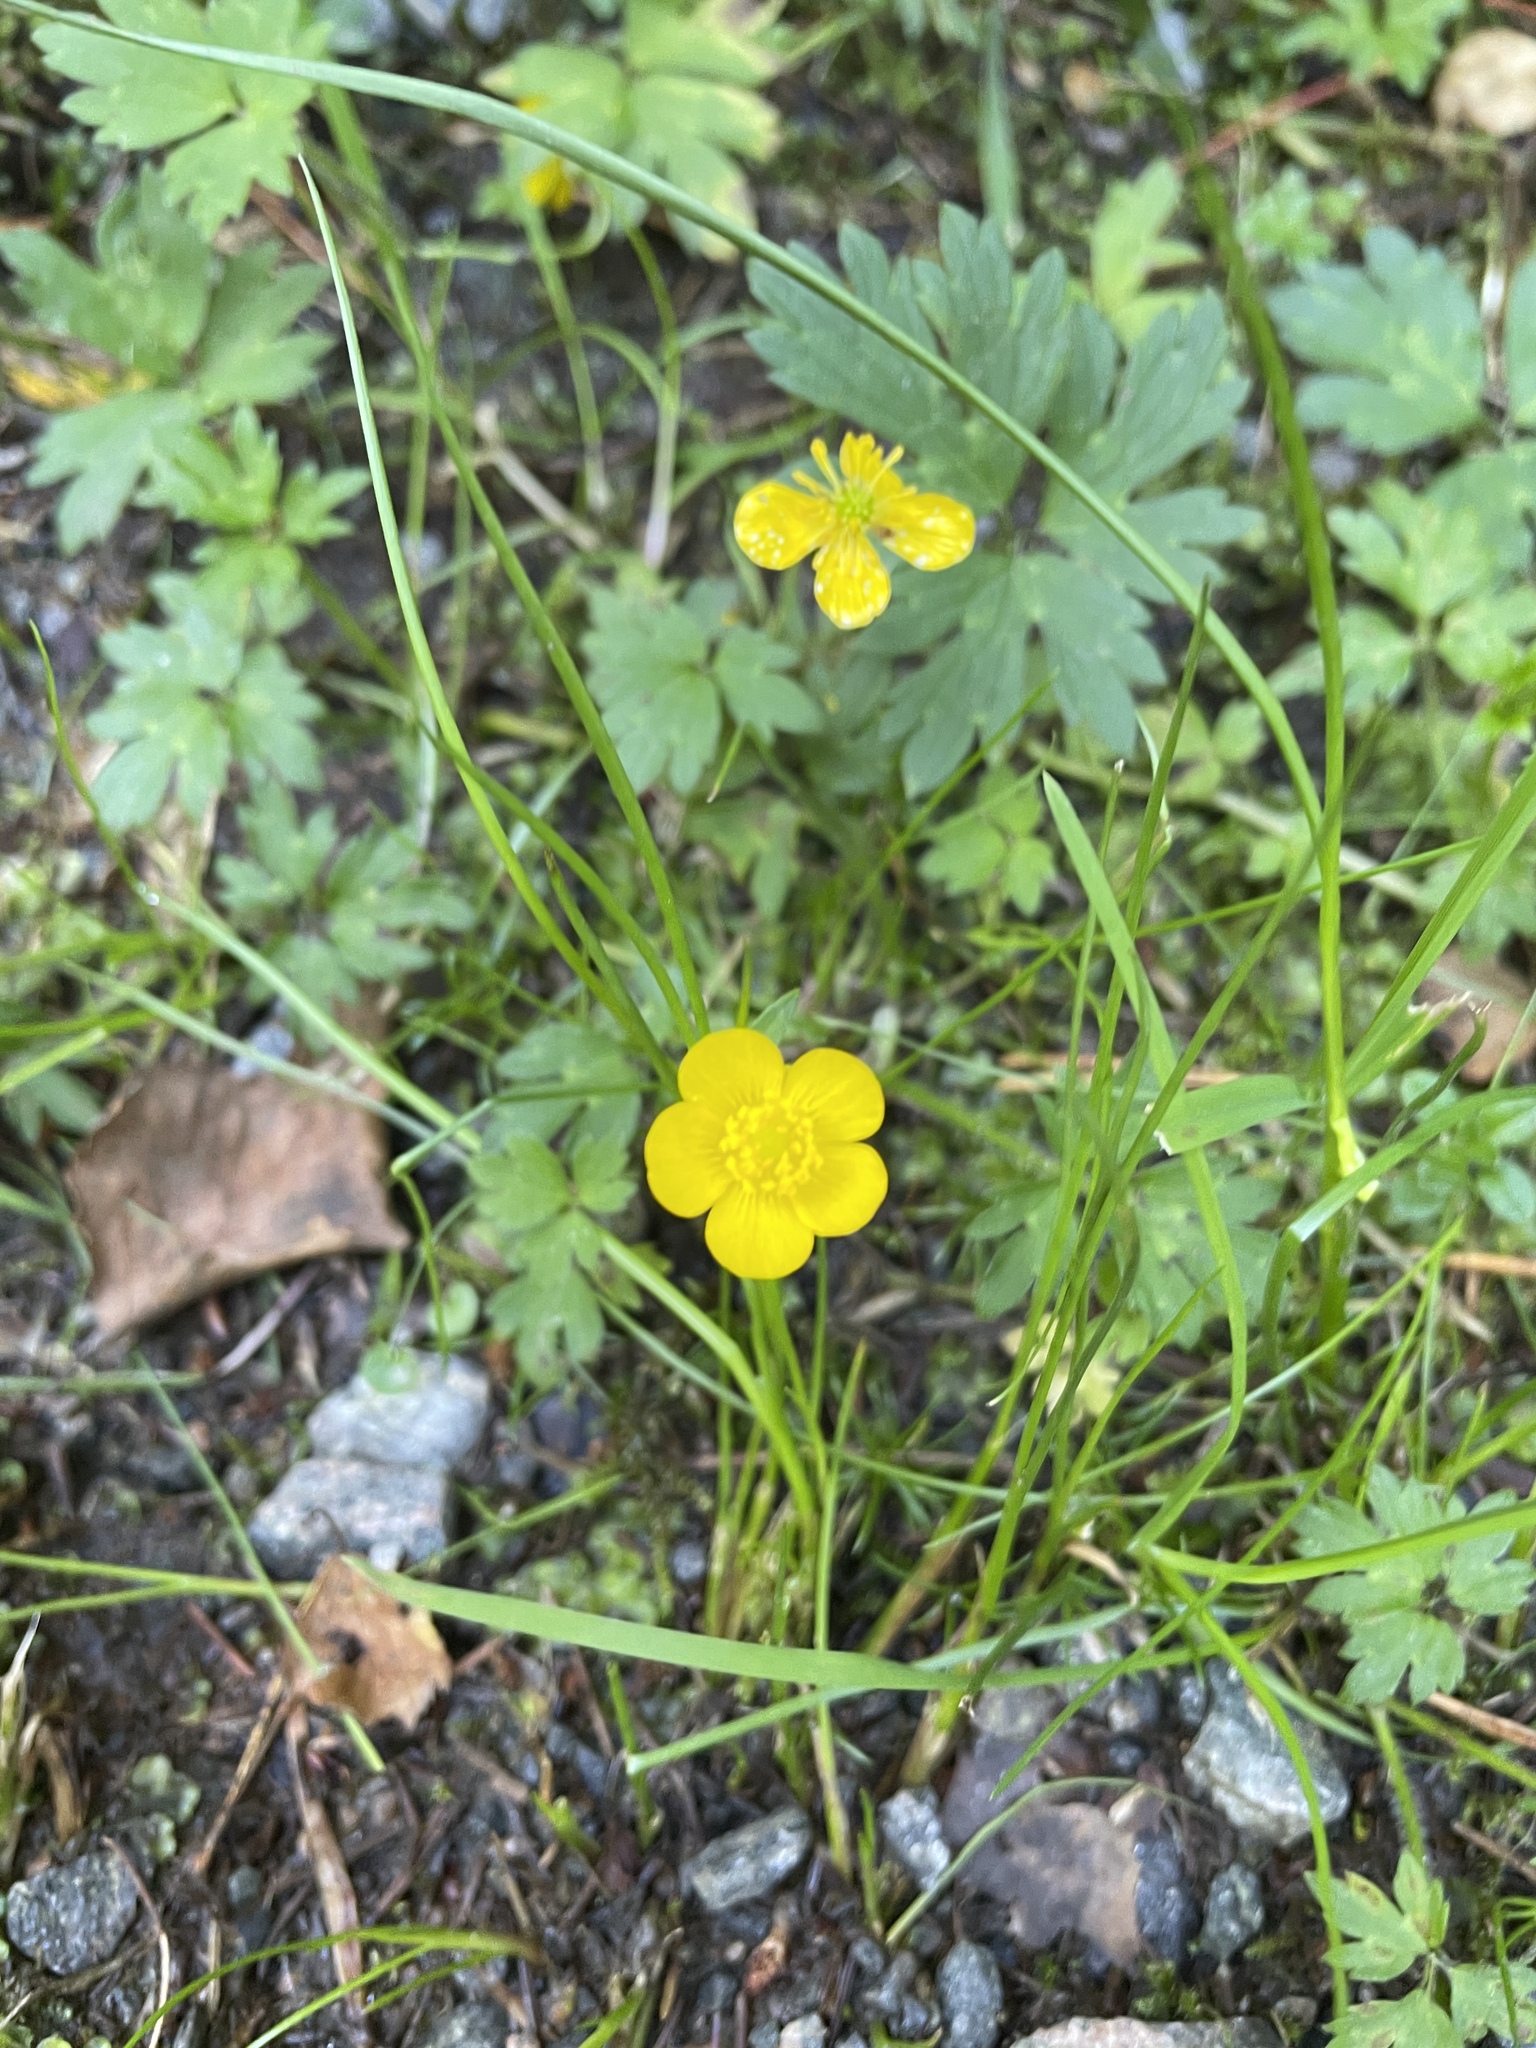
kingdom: Plantae
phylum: Tracheophyta
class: Magnoliopsida
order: Ranunculales
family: Ranunculaceae
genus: Ranunculus
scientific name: Ranunculus repens
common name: Creeping buttercup
